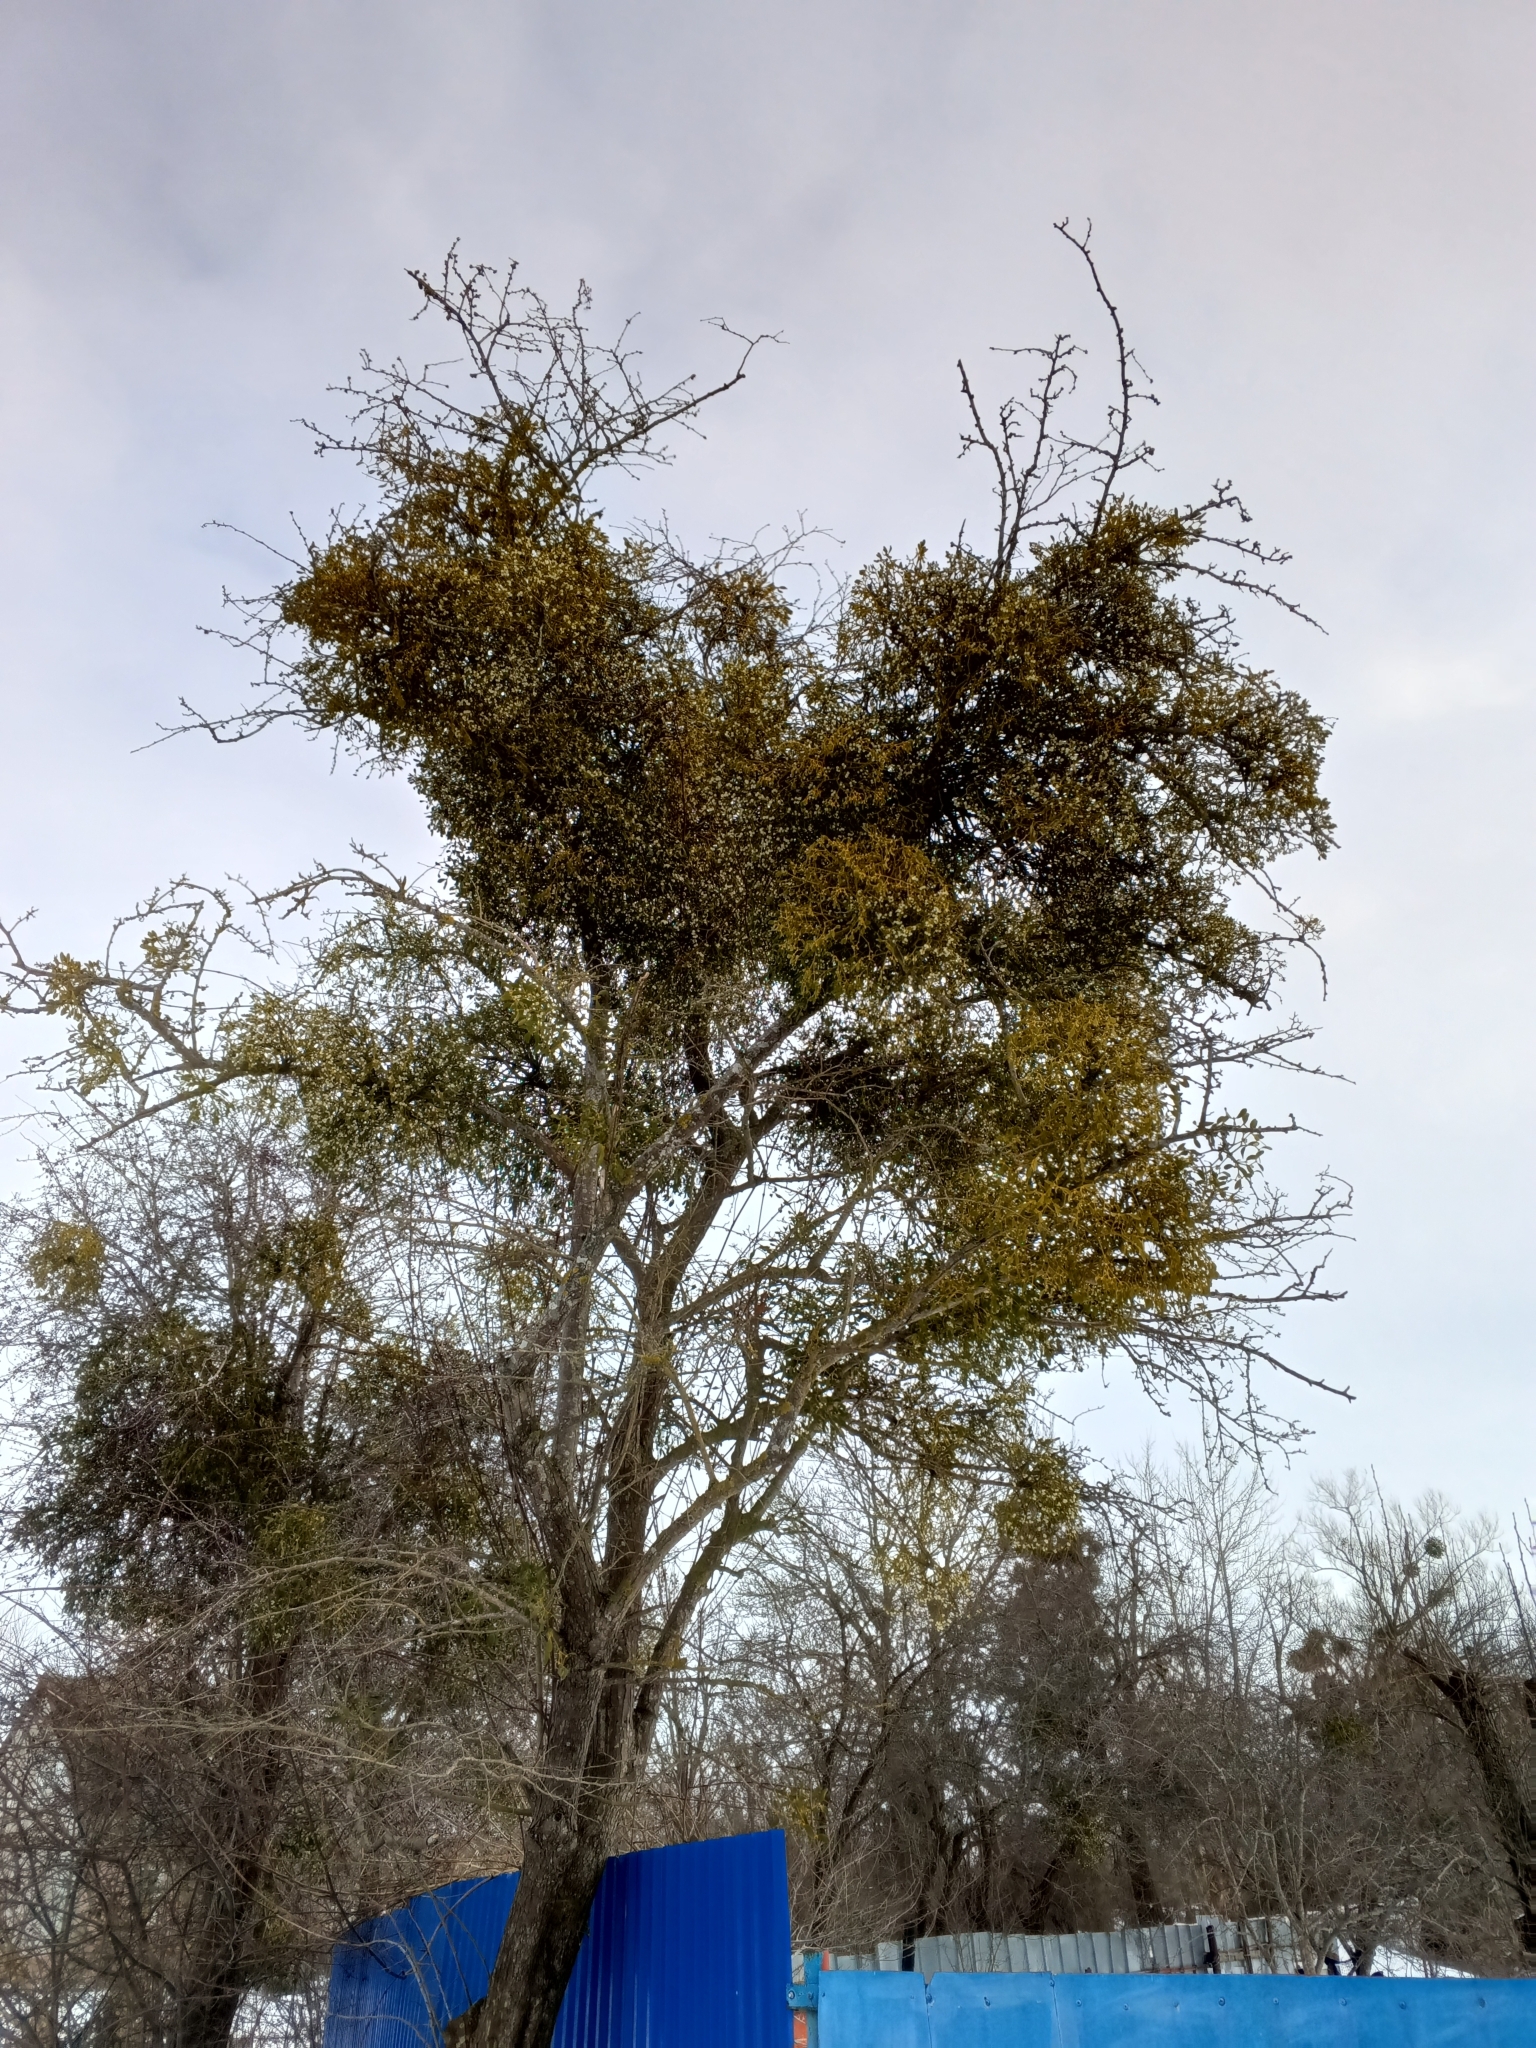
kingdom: Plantae
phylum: Tracheophyta
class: Magnoliopsida
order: Santalales
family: Viscaceae
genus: Viscum
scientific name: Viscum album
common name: Mistletoe
